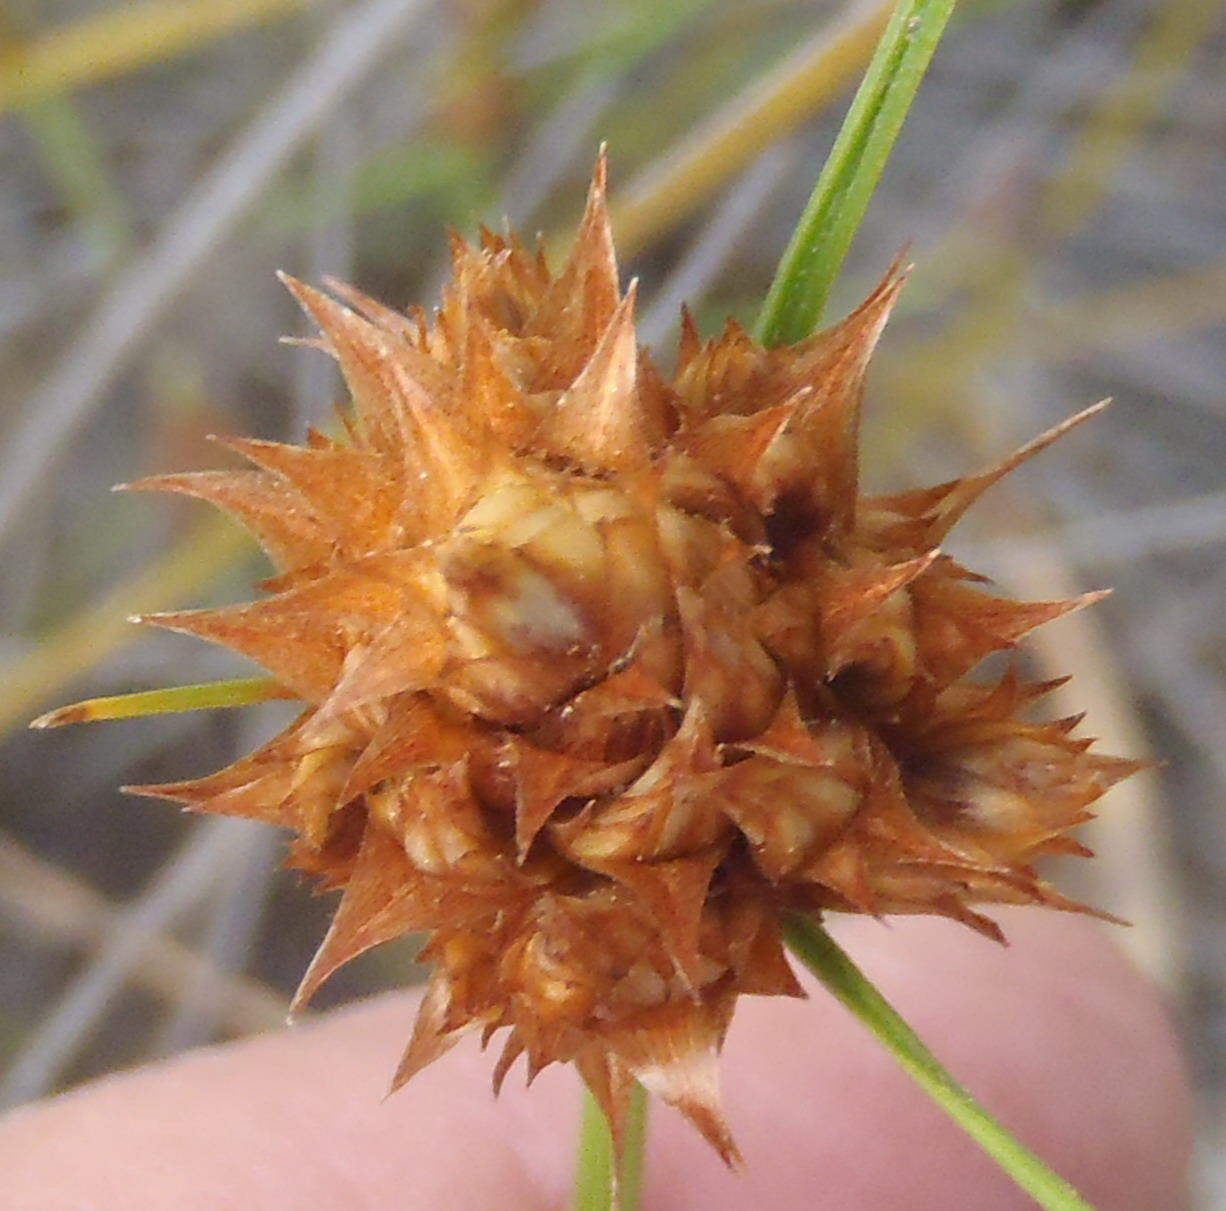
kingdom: Plantae
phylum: Tracheophyta
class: Liliopsida
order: Poales
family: Cyperaceae
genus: Ficinia
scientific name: Ficinia nigrescens
